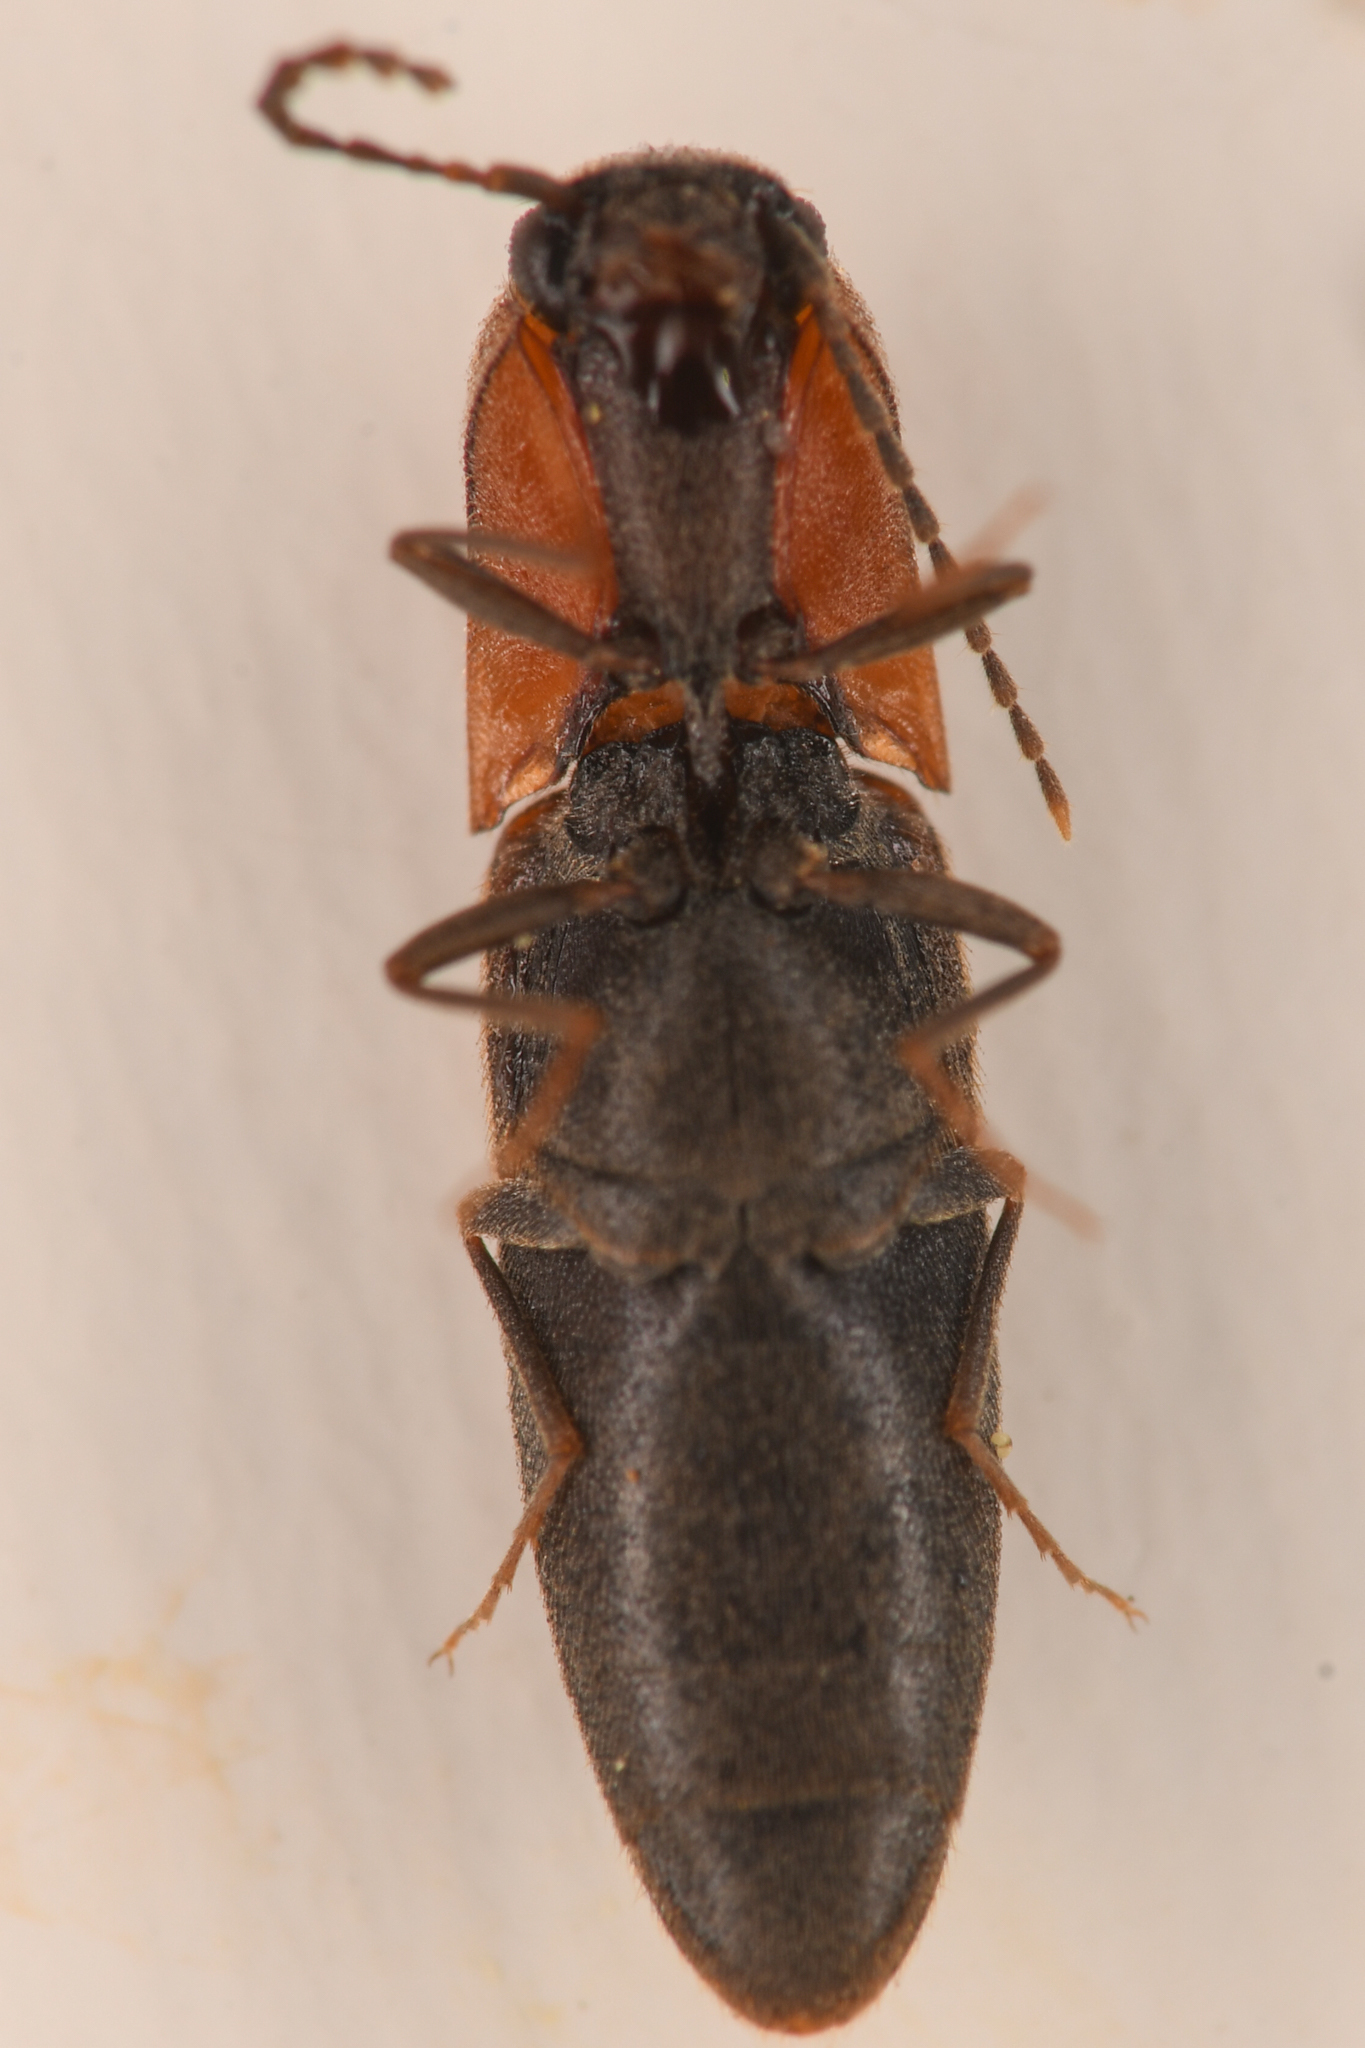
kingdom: Animalia
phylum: Arthropoda
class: Insecta
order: Coleoptera
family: Elateridae
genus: Idolus
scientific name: Idolus columbiana
